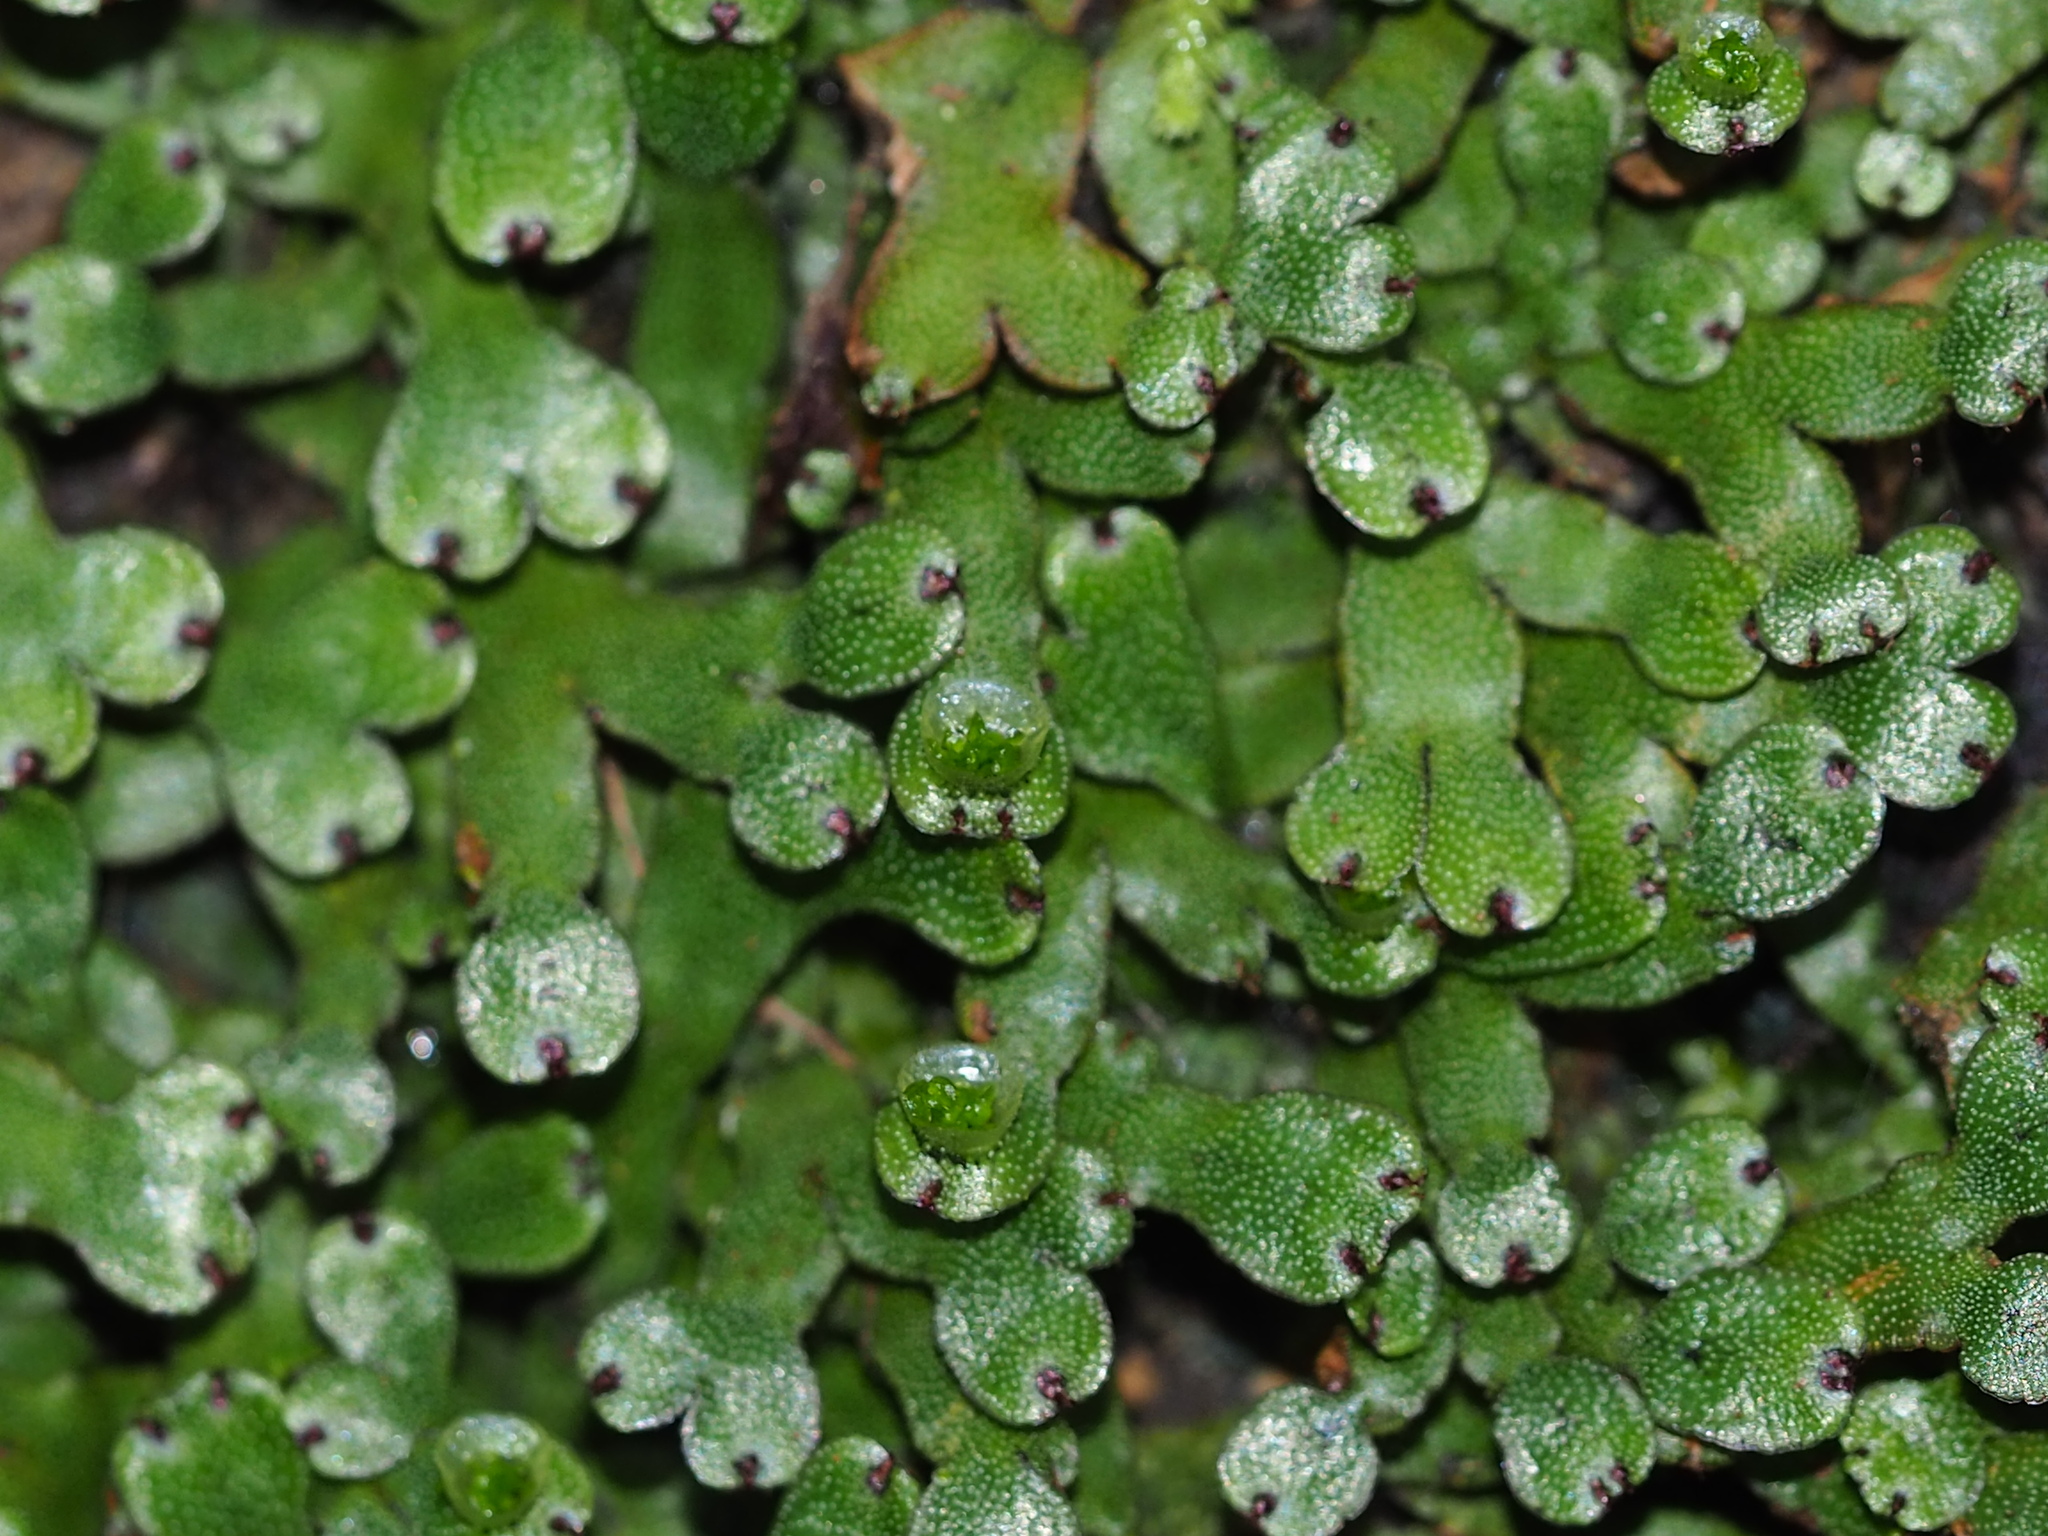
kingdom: Plantae
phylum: Marchantiophyta
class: Marchantiopsida
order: Marchantiales
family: Marchantiaceae
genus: Marchantia
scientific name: Marchantia emarginata
